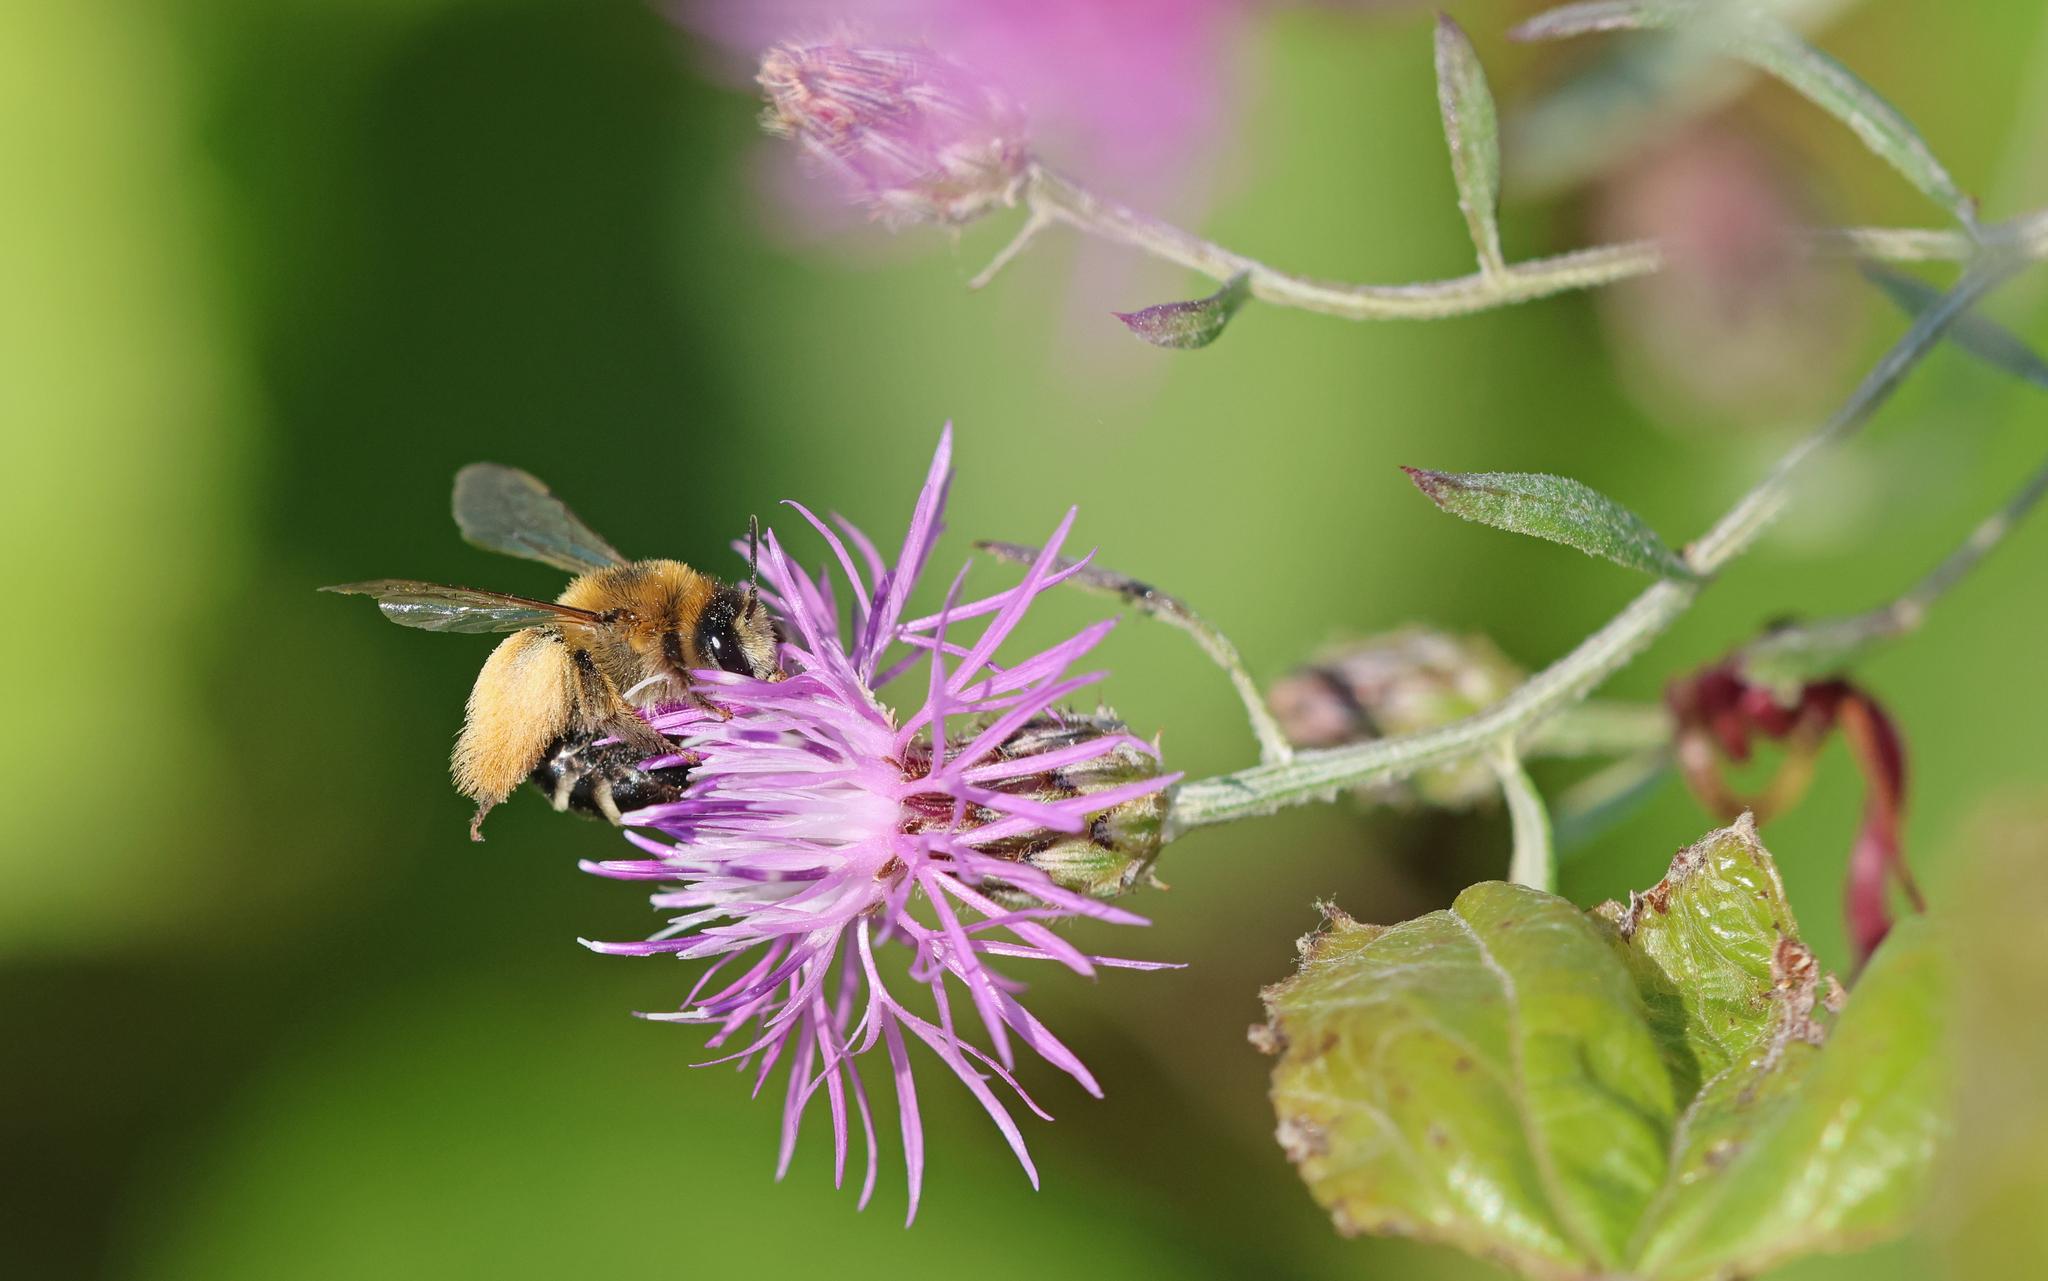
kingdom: Animalia
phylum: Arthropoda
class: Insecta
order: Hymenoptera
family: Melittidae
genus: Dasypoda
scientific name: Dasypoda hirtipes
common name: Pantaloon bee
